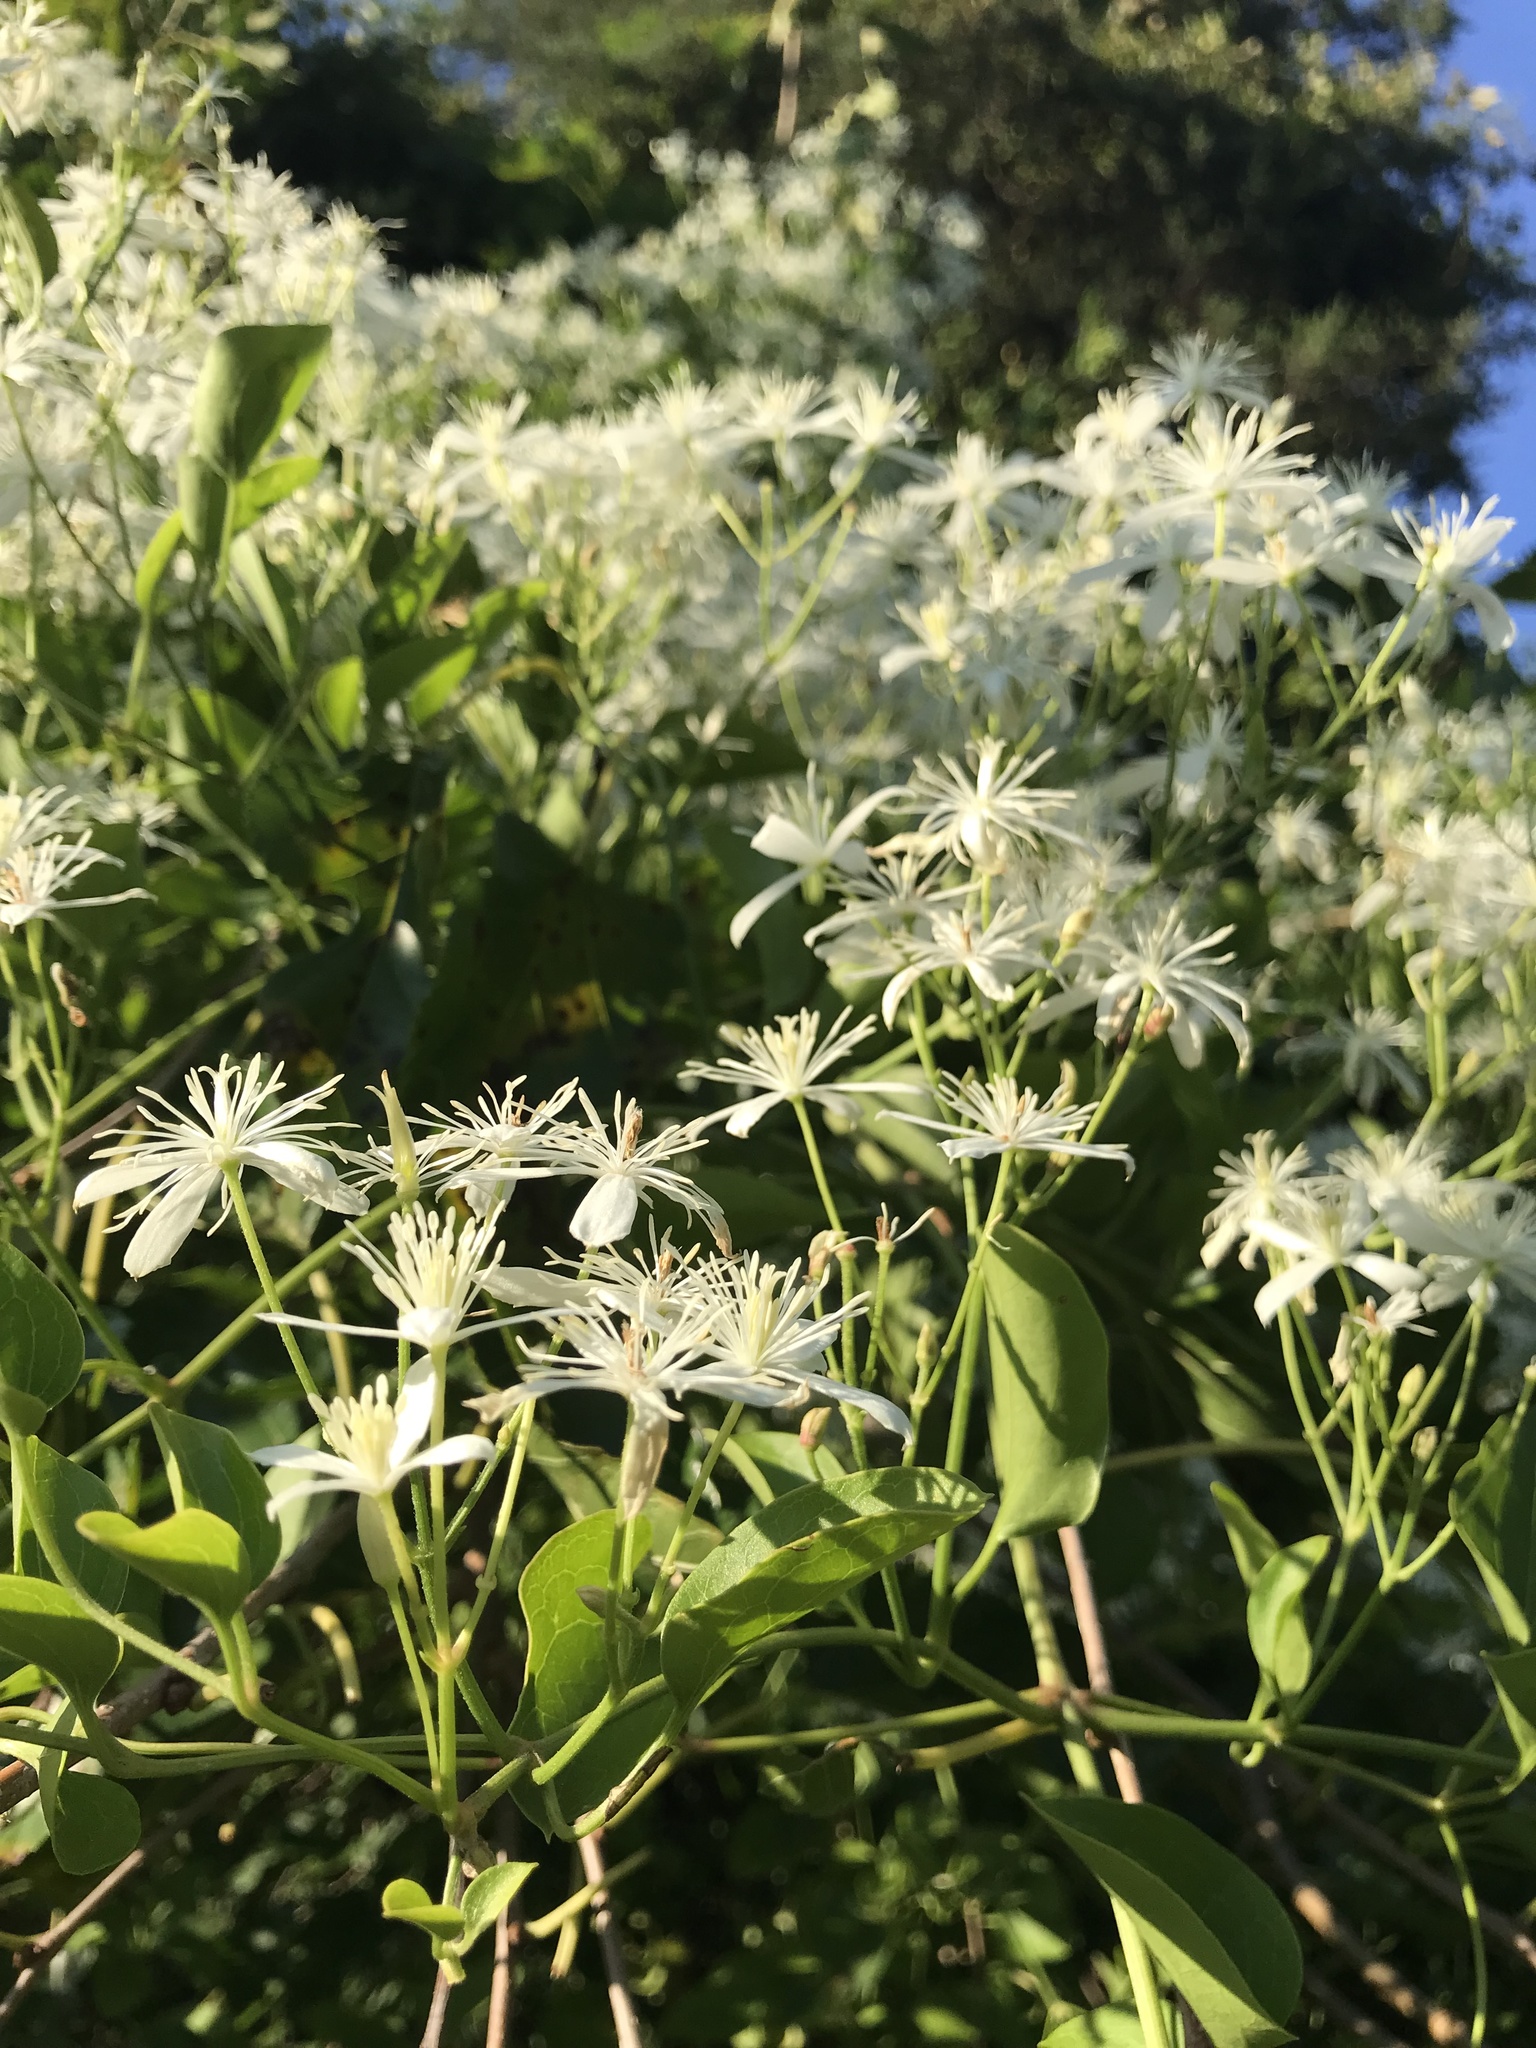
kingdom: Plantae
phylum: Tracheophyta
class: Magnoliopsida
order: Ranunculales
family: Ranunculaceae
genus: Clematis
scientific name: Clematis terniflora
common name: Sweet autumn clematis
